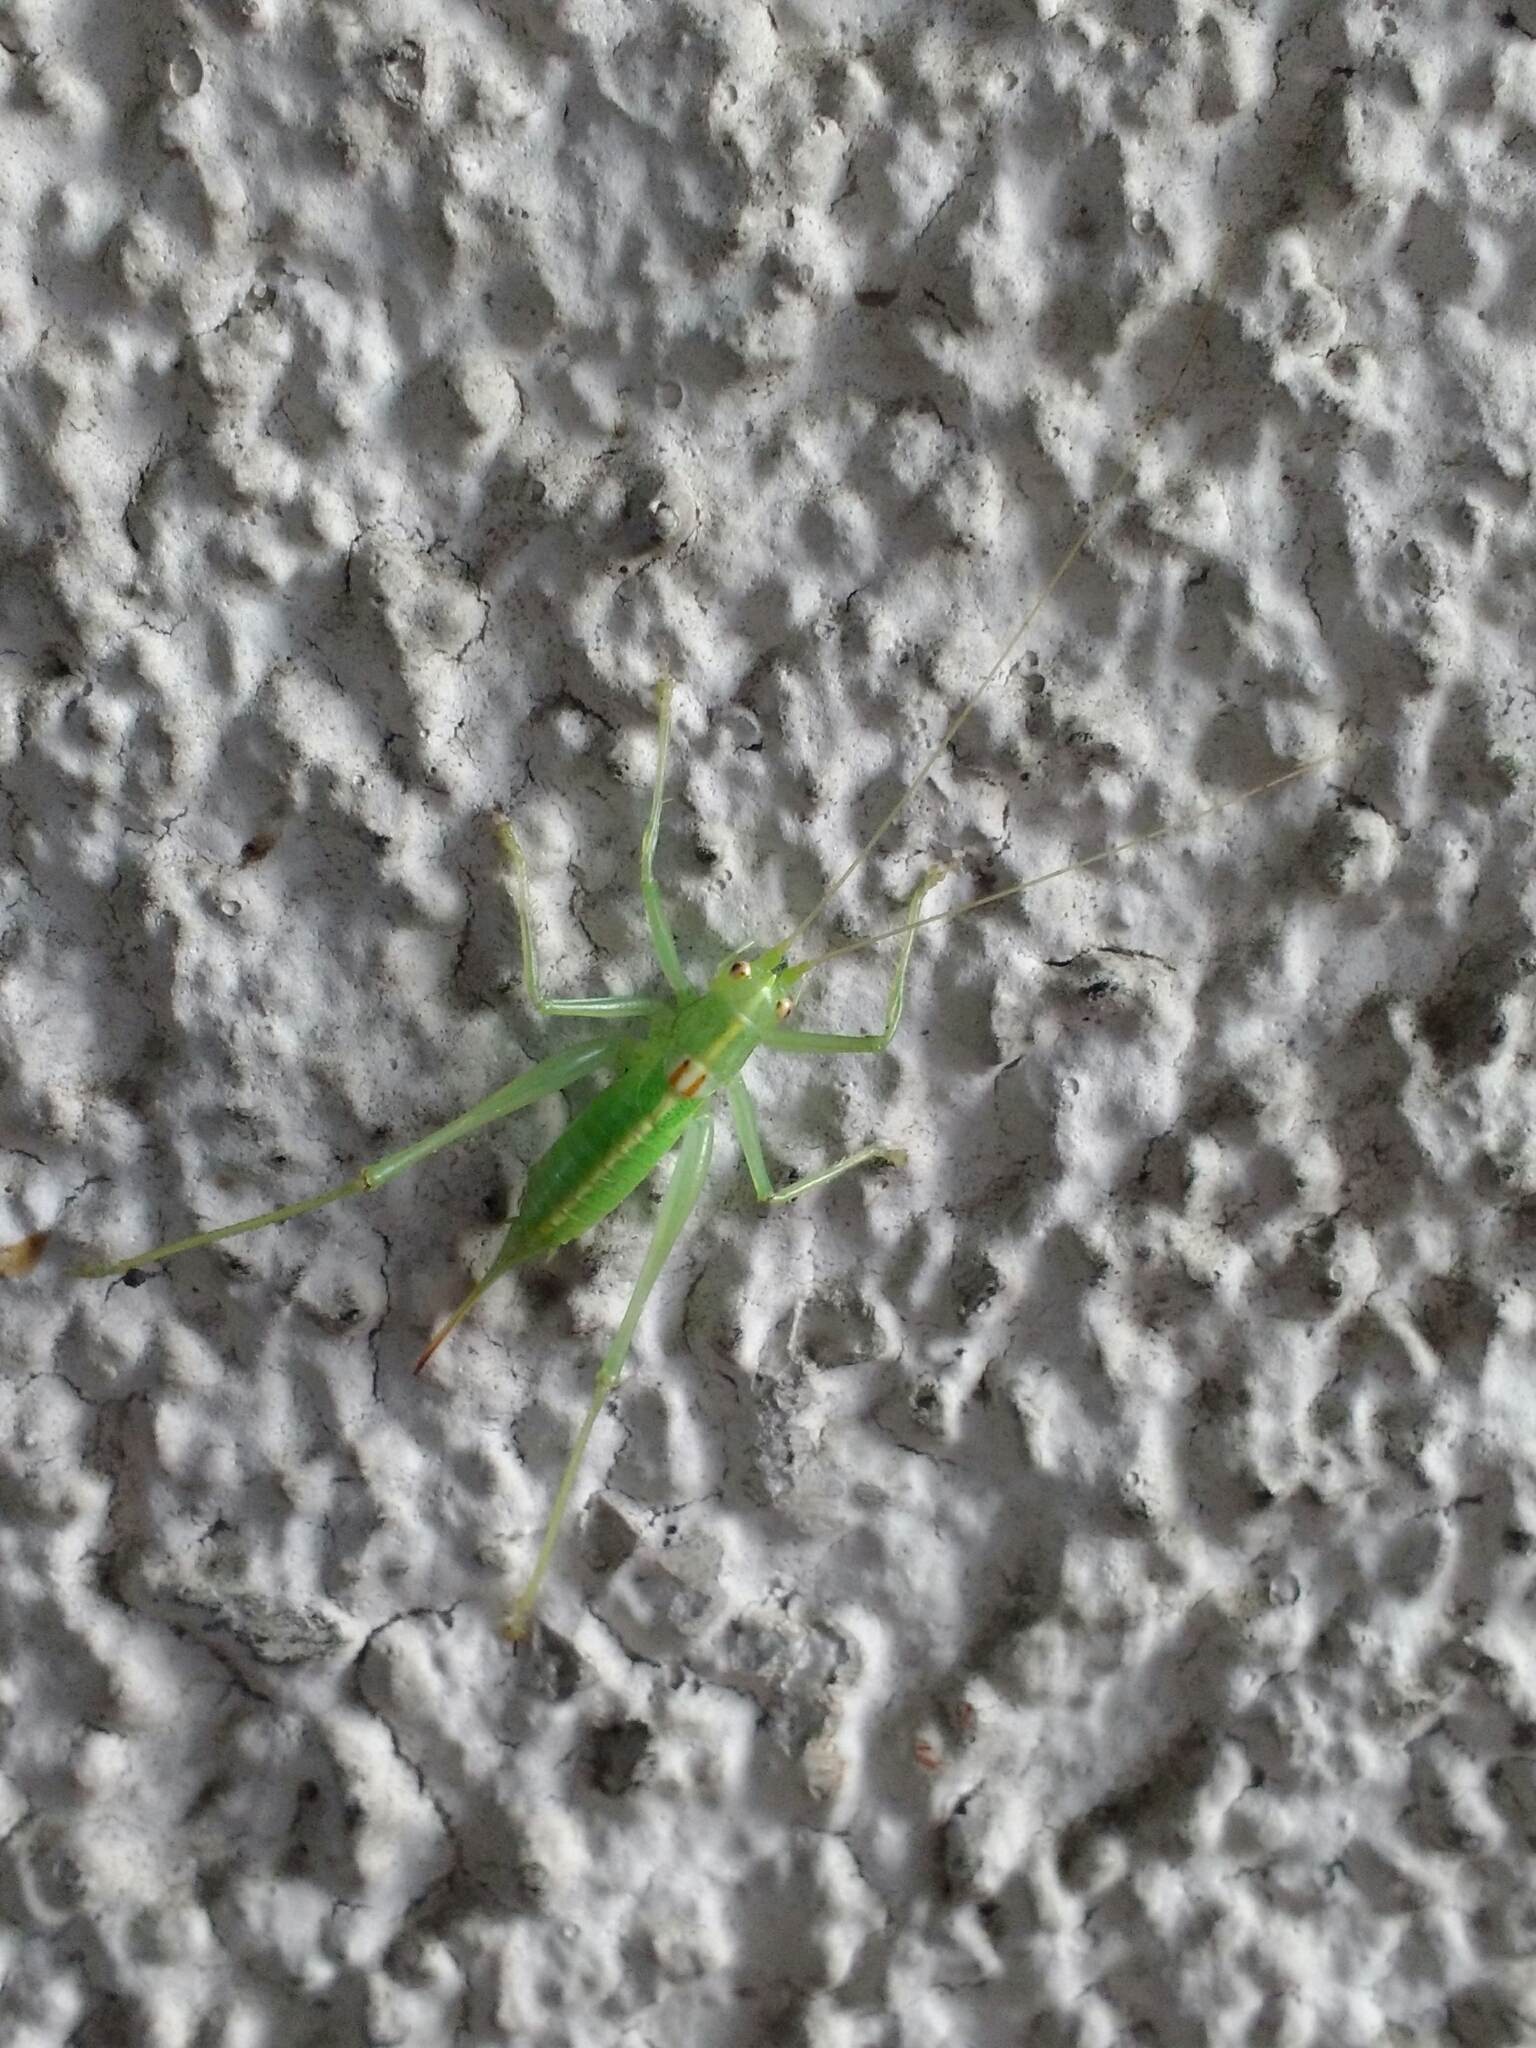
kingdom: Animalia
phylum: Arthropoda
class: Insecta
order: Orthoptera
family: Tettigoniidae
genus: Meconema
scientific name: Meconema meridionale
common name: Southern oak bush-cricket
